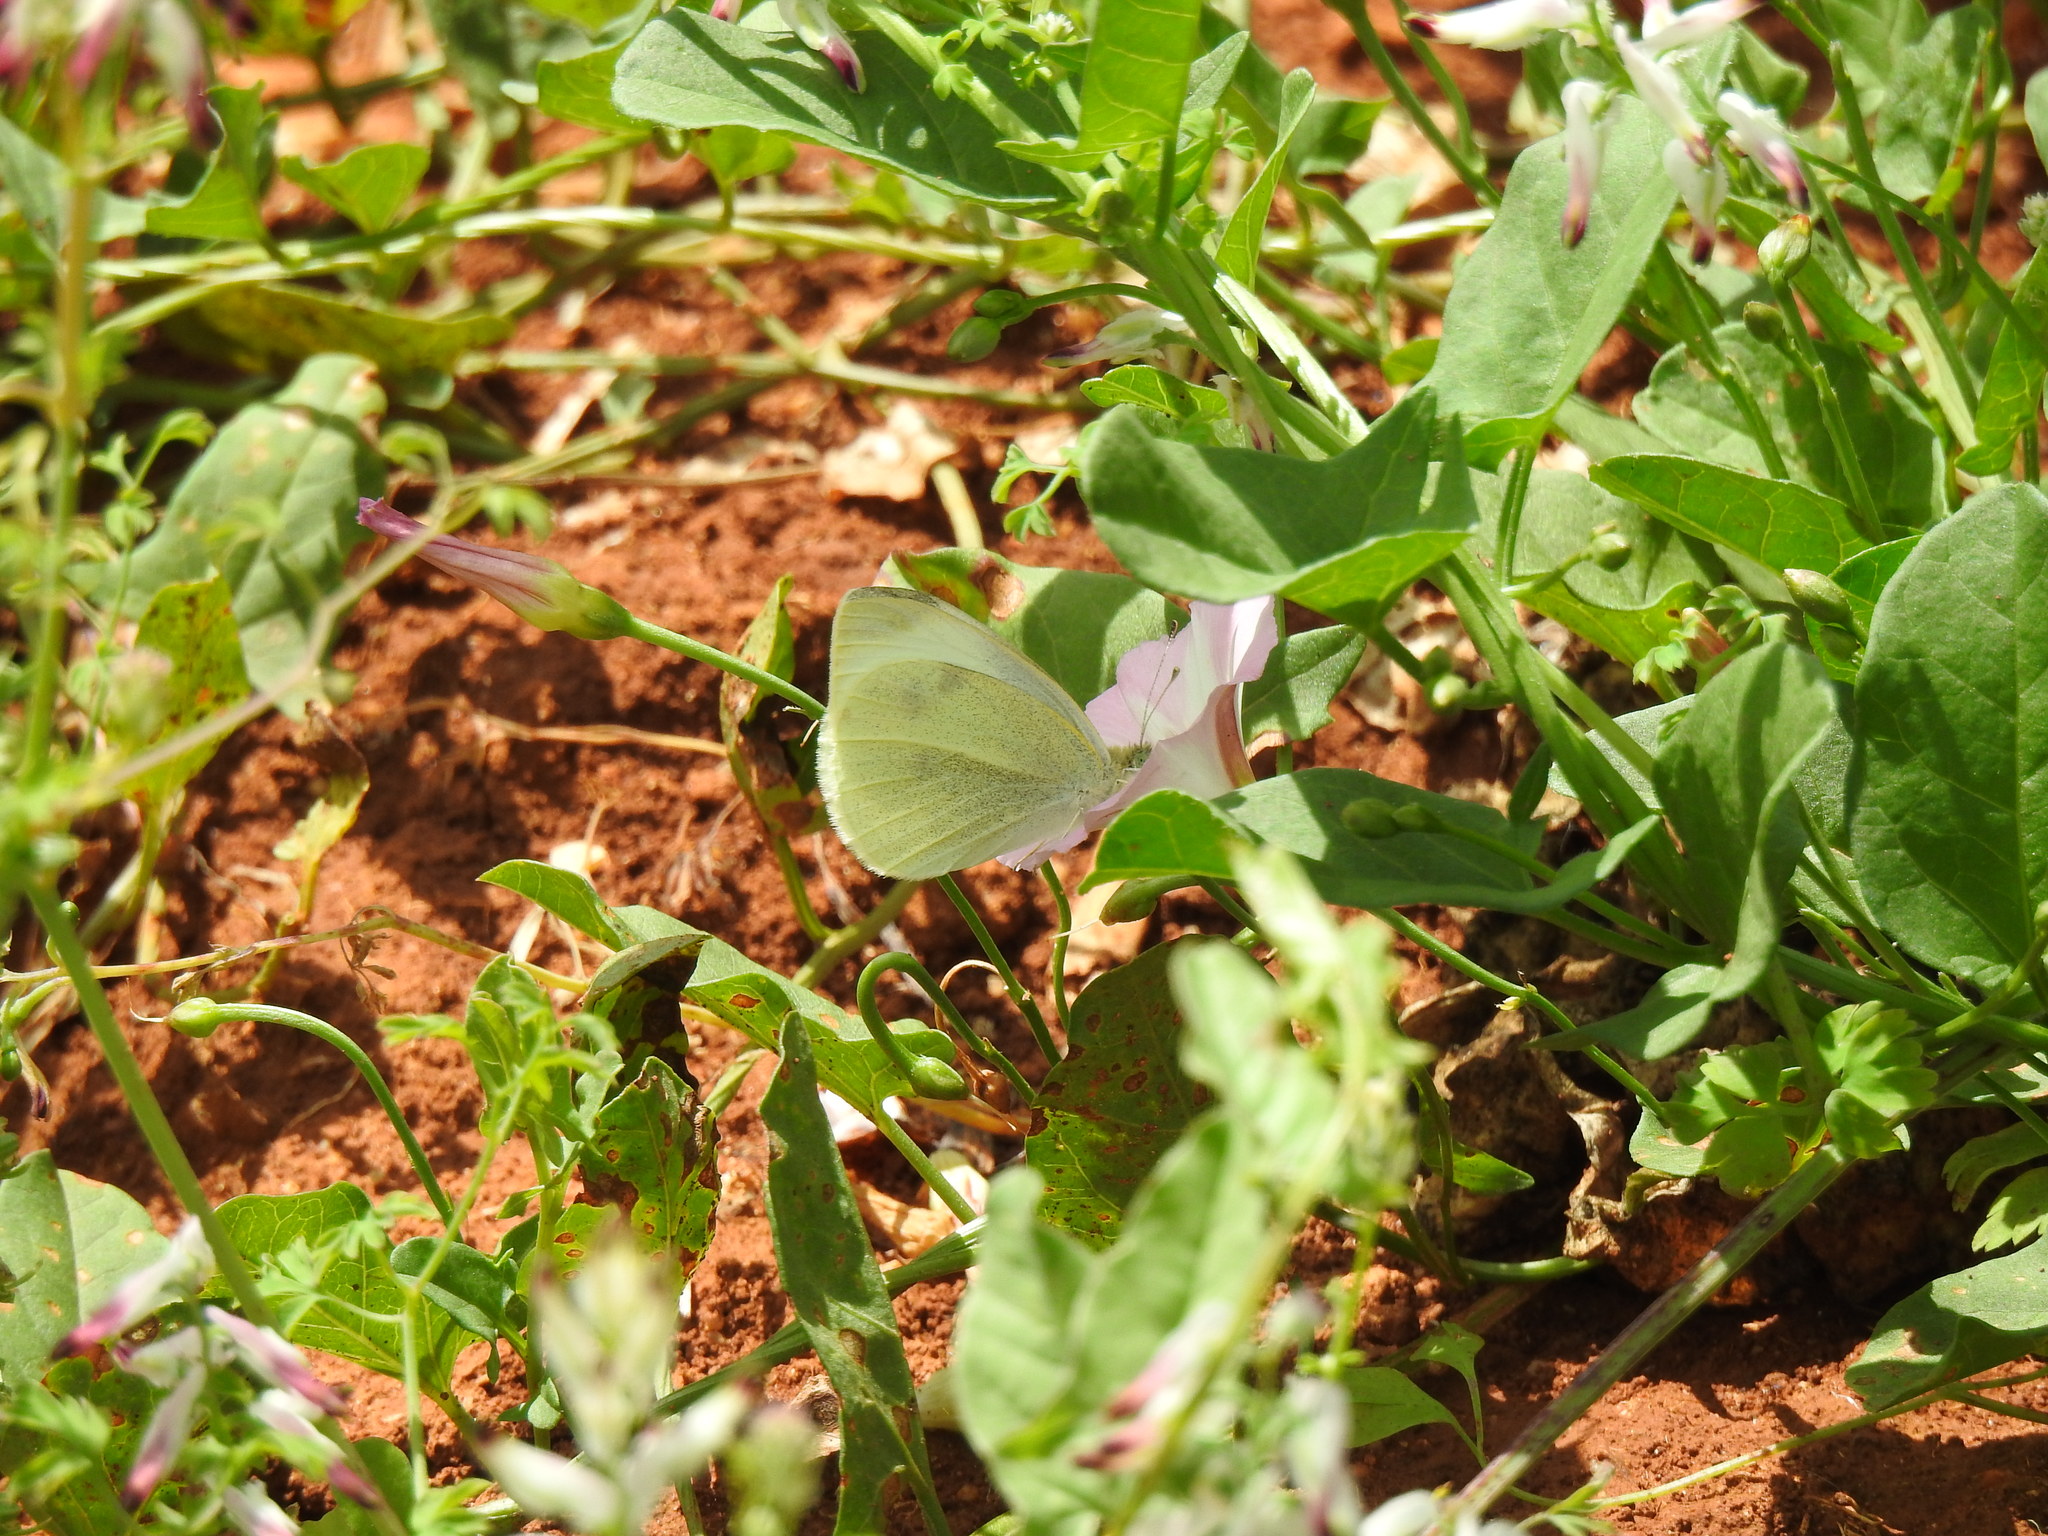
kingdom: Animalia
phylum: Arthropoda
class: Insecta
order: Lepidoptera
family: Pieridae
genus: Pieris
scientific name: Pieris rapae
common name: Small white
